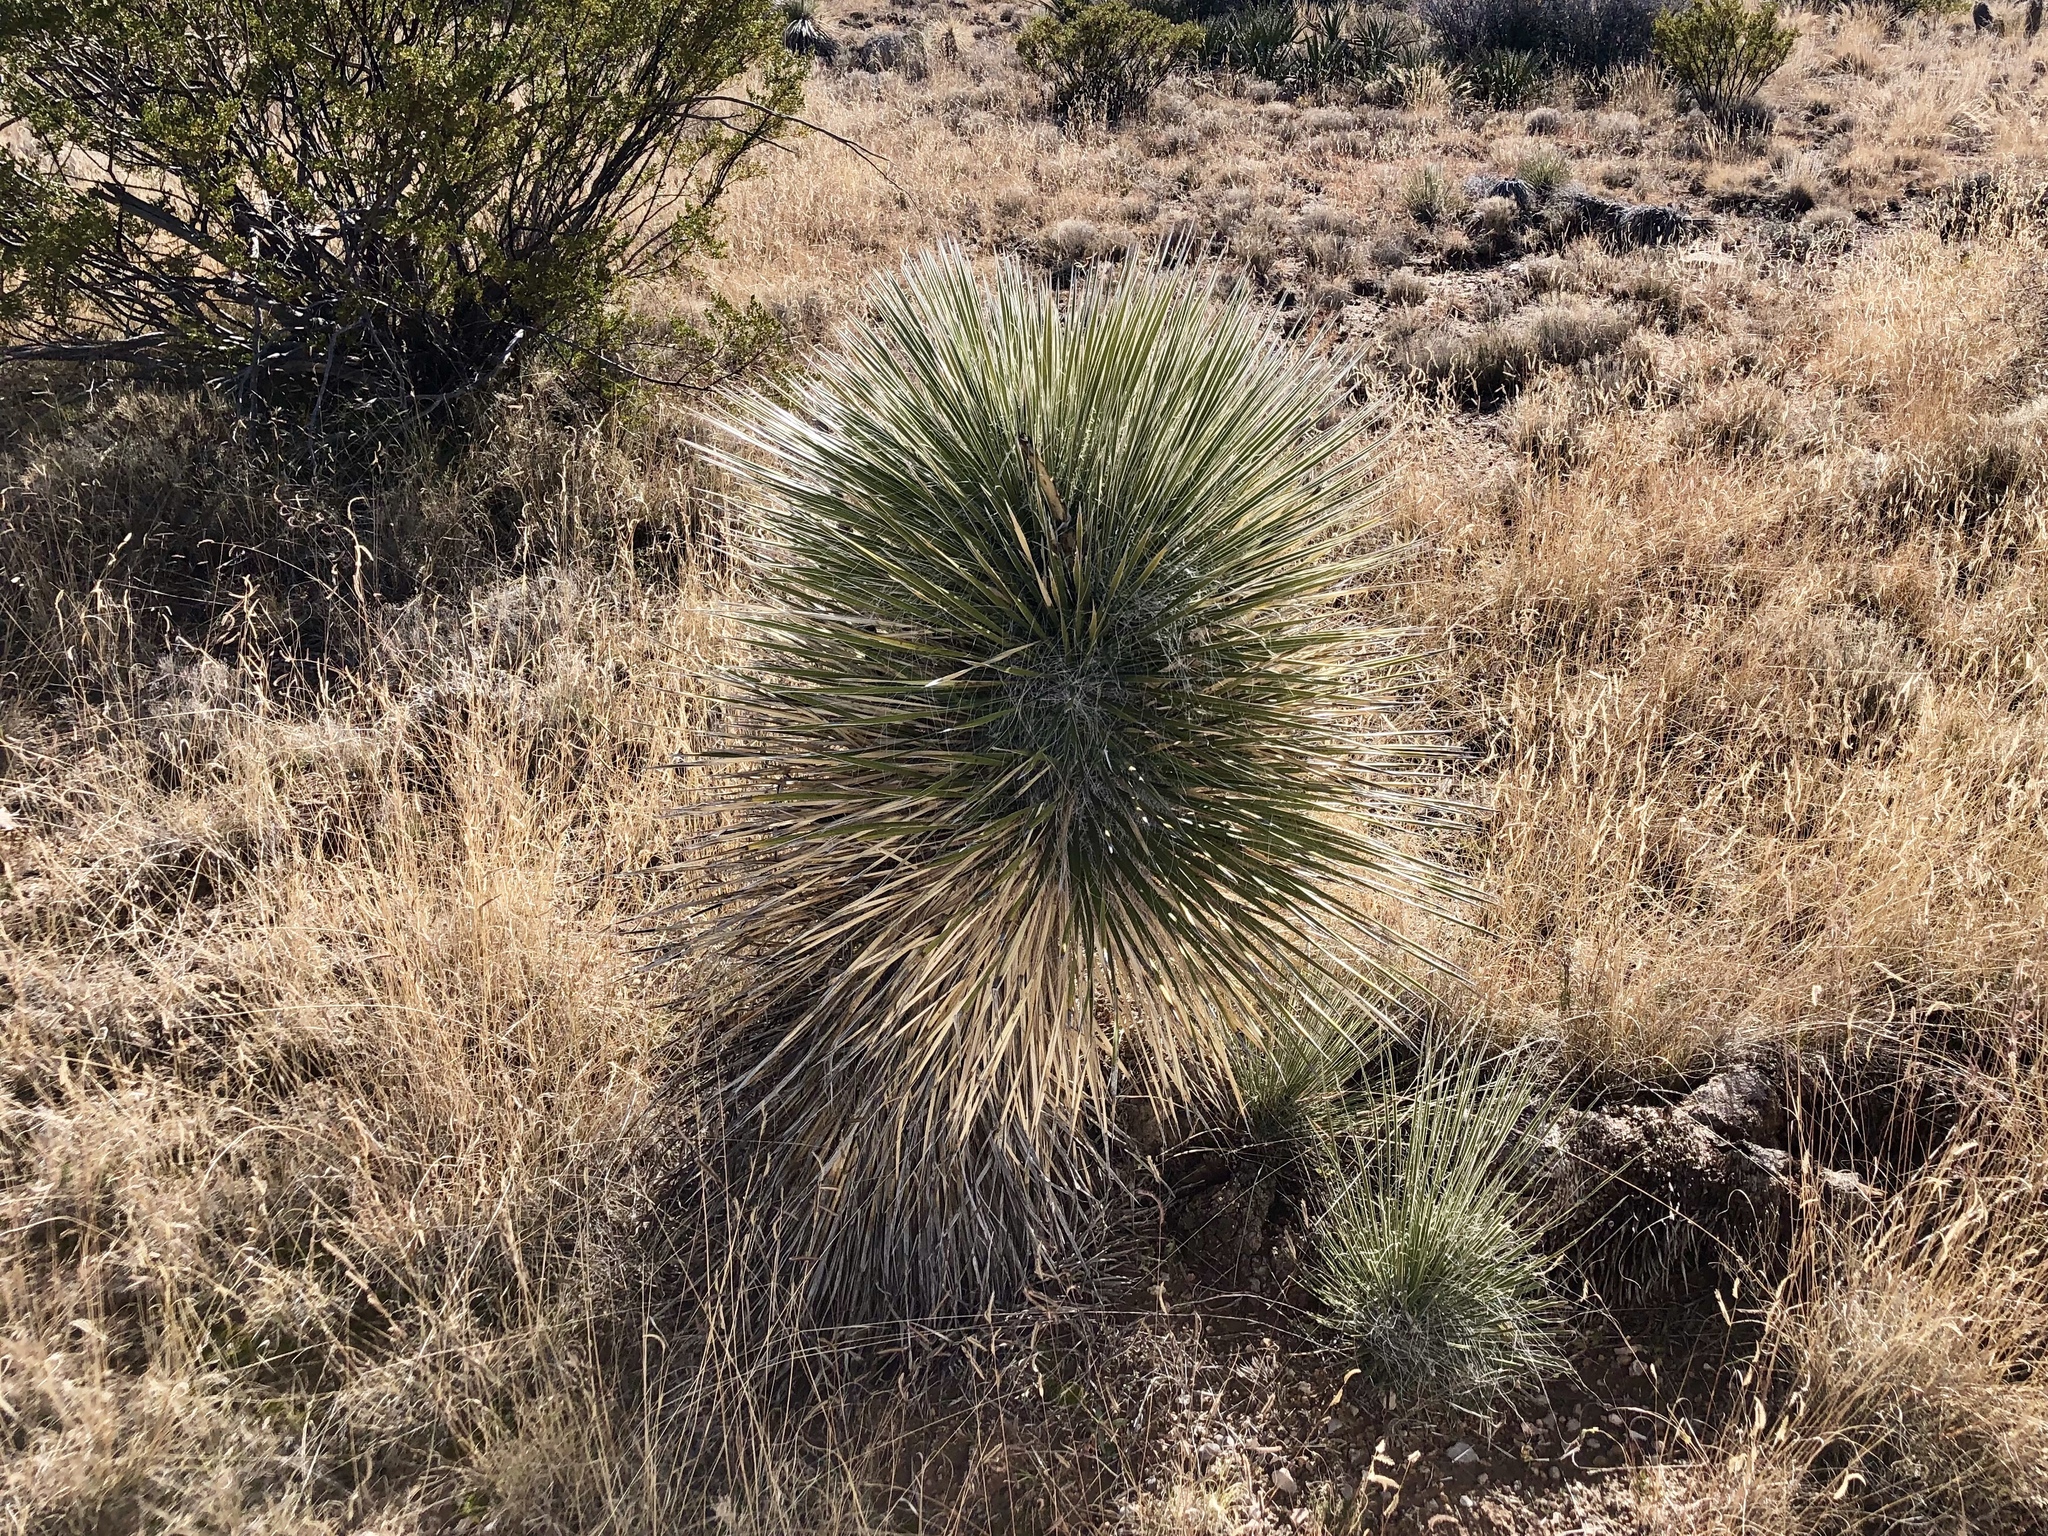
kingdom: Plantae
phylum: Tracheophyta
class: Liliopsida
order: Asparagales
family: Asparagaceae
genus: Yucca
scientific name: Yucca elata
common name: Palmella
